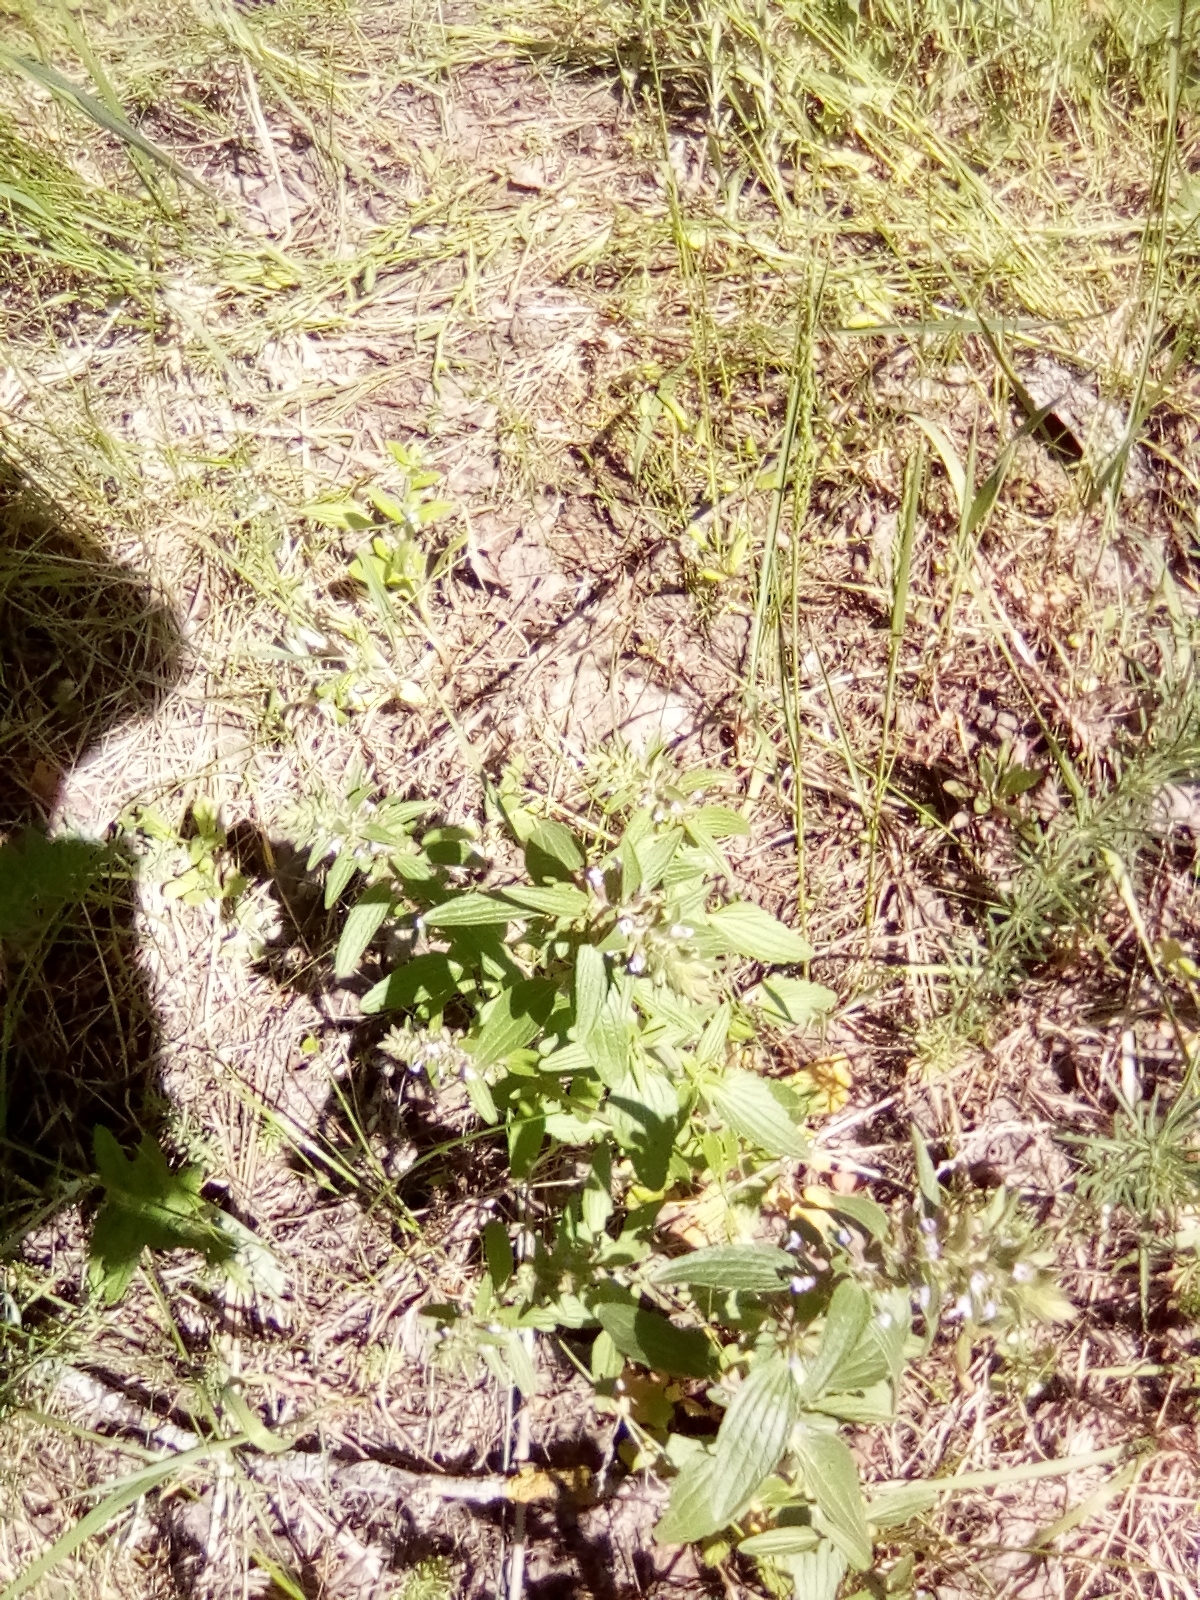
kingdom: Plantae
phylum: Tracheophyta
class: Magnoliopsida
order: Lamiales
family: Lamiaceae
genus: Dracocephalum
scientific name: Dracocephalum thymiflorum
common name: Thymeleaf dragonhead
